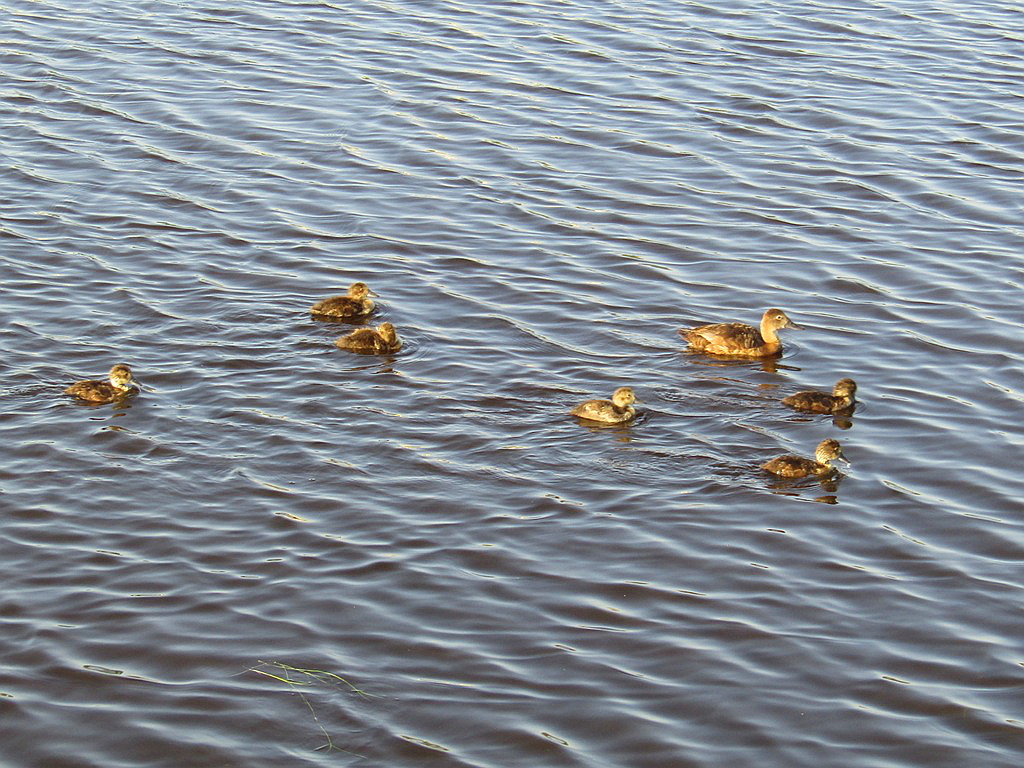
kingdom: Animalia
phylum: Chordata
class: Aves
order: Anseriformes
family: Anatidae
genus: Aythya
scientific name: Aythya ferina
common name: Common pochard
